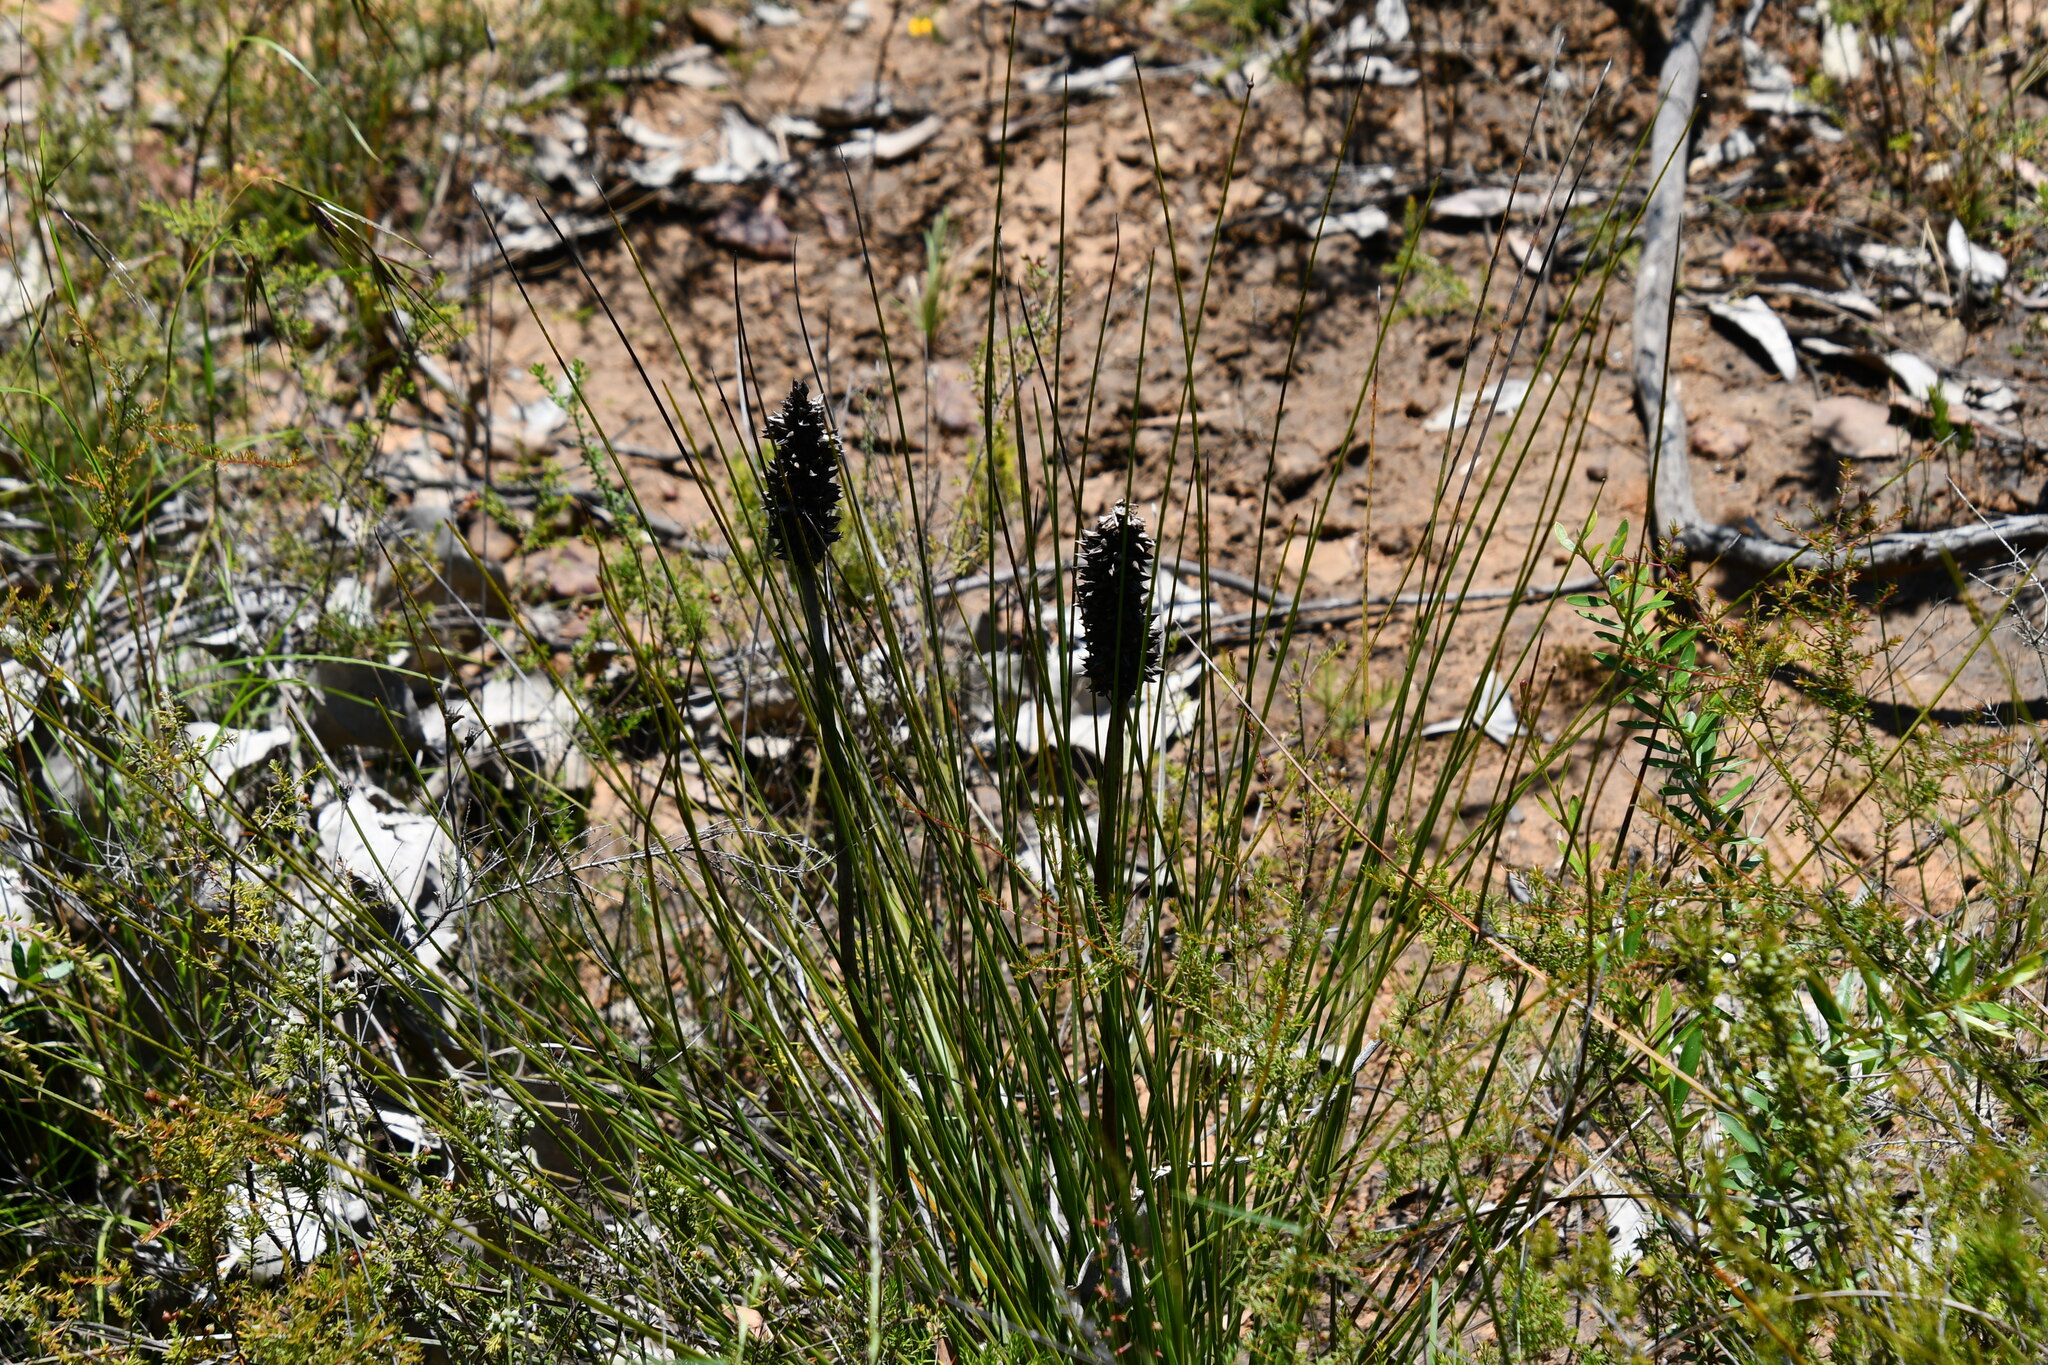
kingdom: Plantae
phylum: Tracheophyta
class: Liliopsida
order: Asparagales
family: Asphodelaceae
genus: Xanthorrhoea
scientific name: Xanthorrhoea minor
